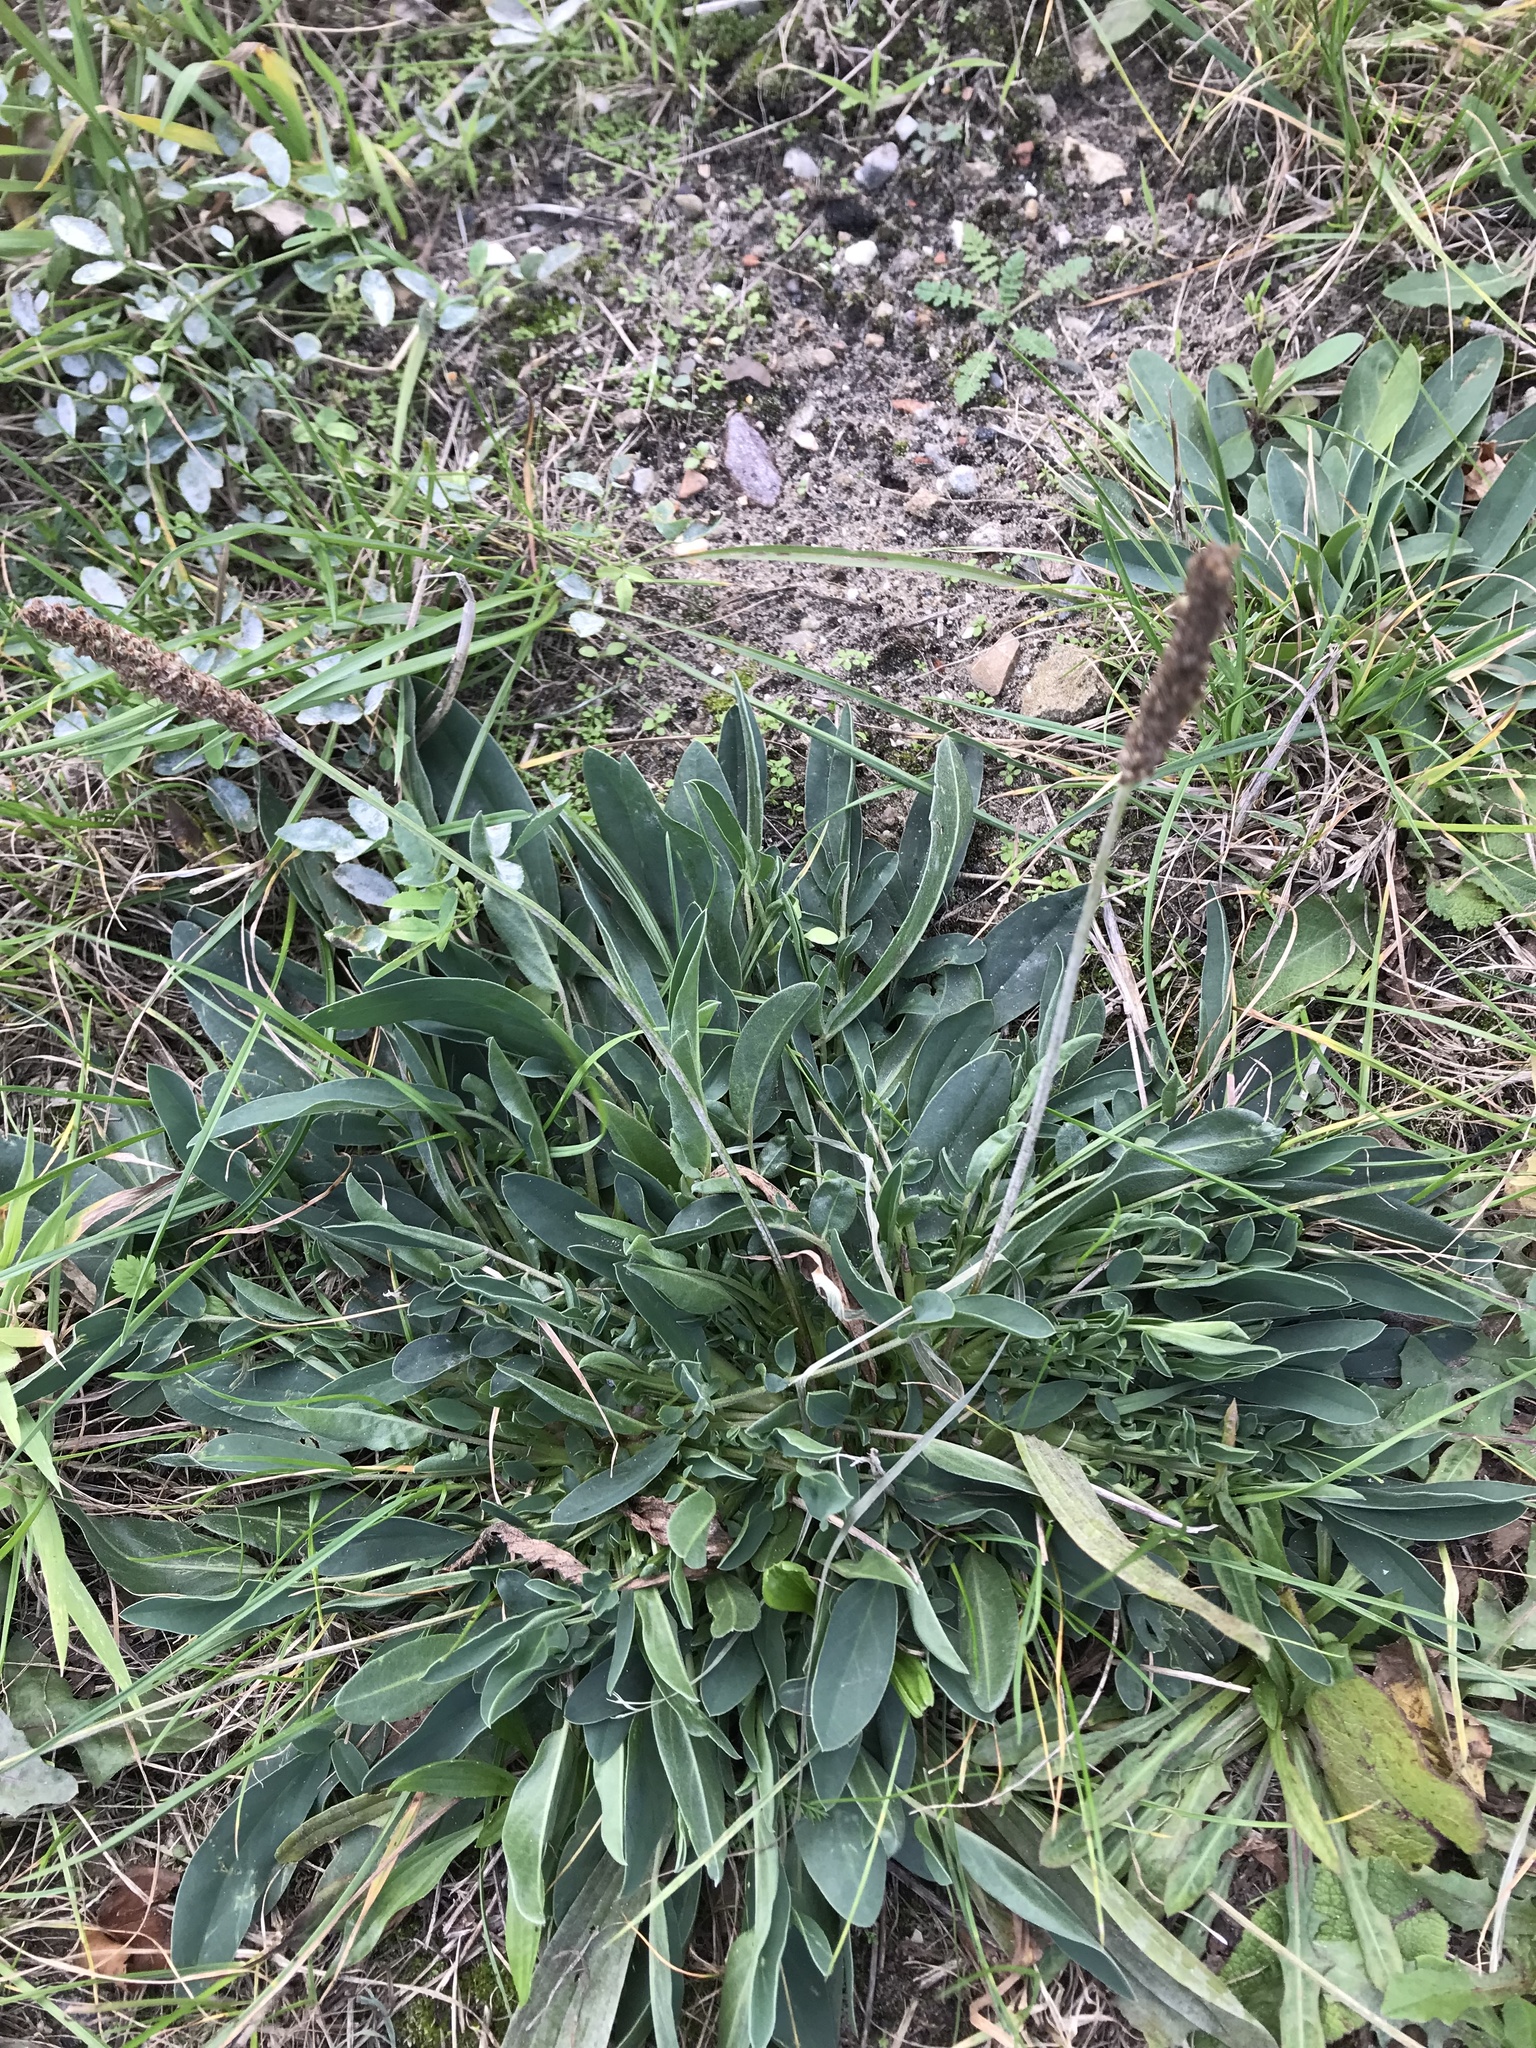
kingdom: Plantae
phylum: Tracheophyta
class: Magnoliopsida
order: Lamiales
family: Plantaginaceae
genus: Plantago
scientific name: Plantago lanceolata
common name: Ribwort plantain
